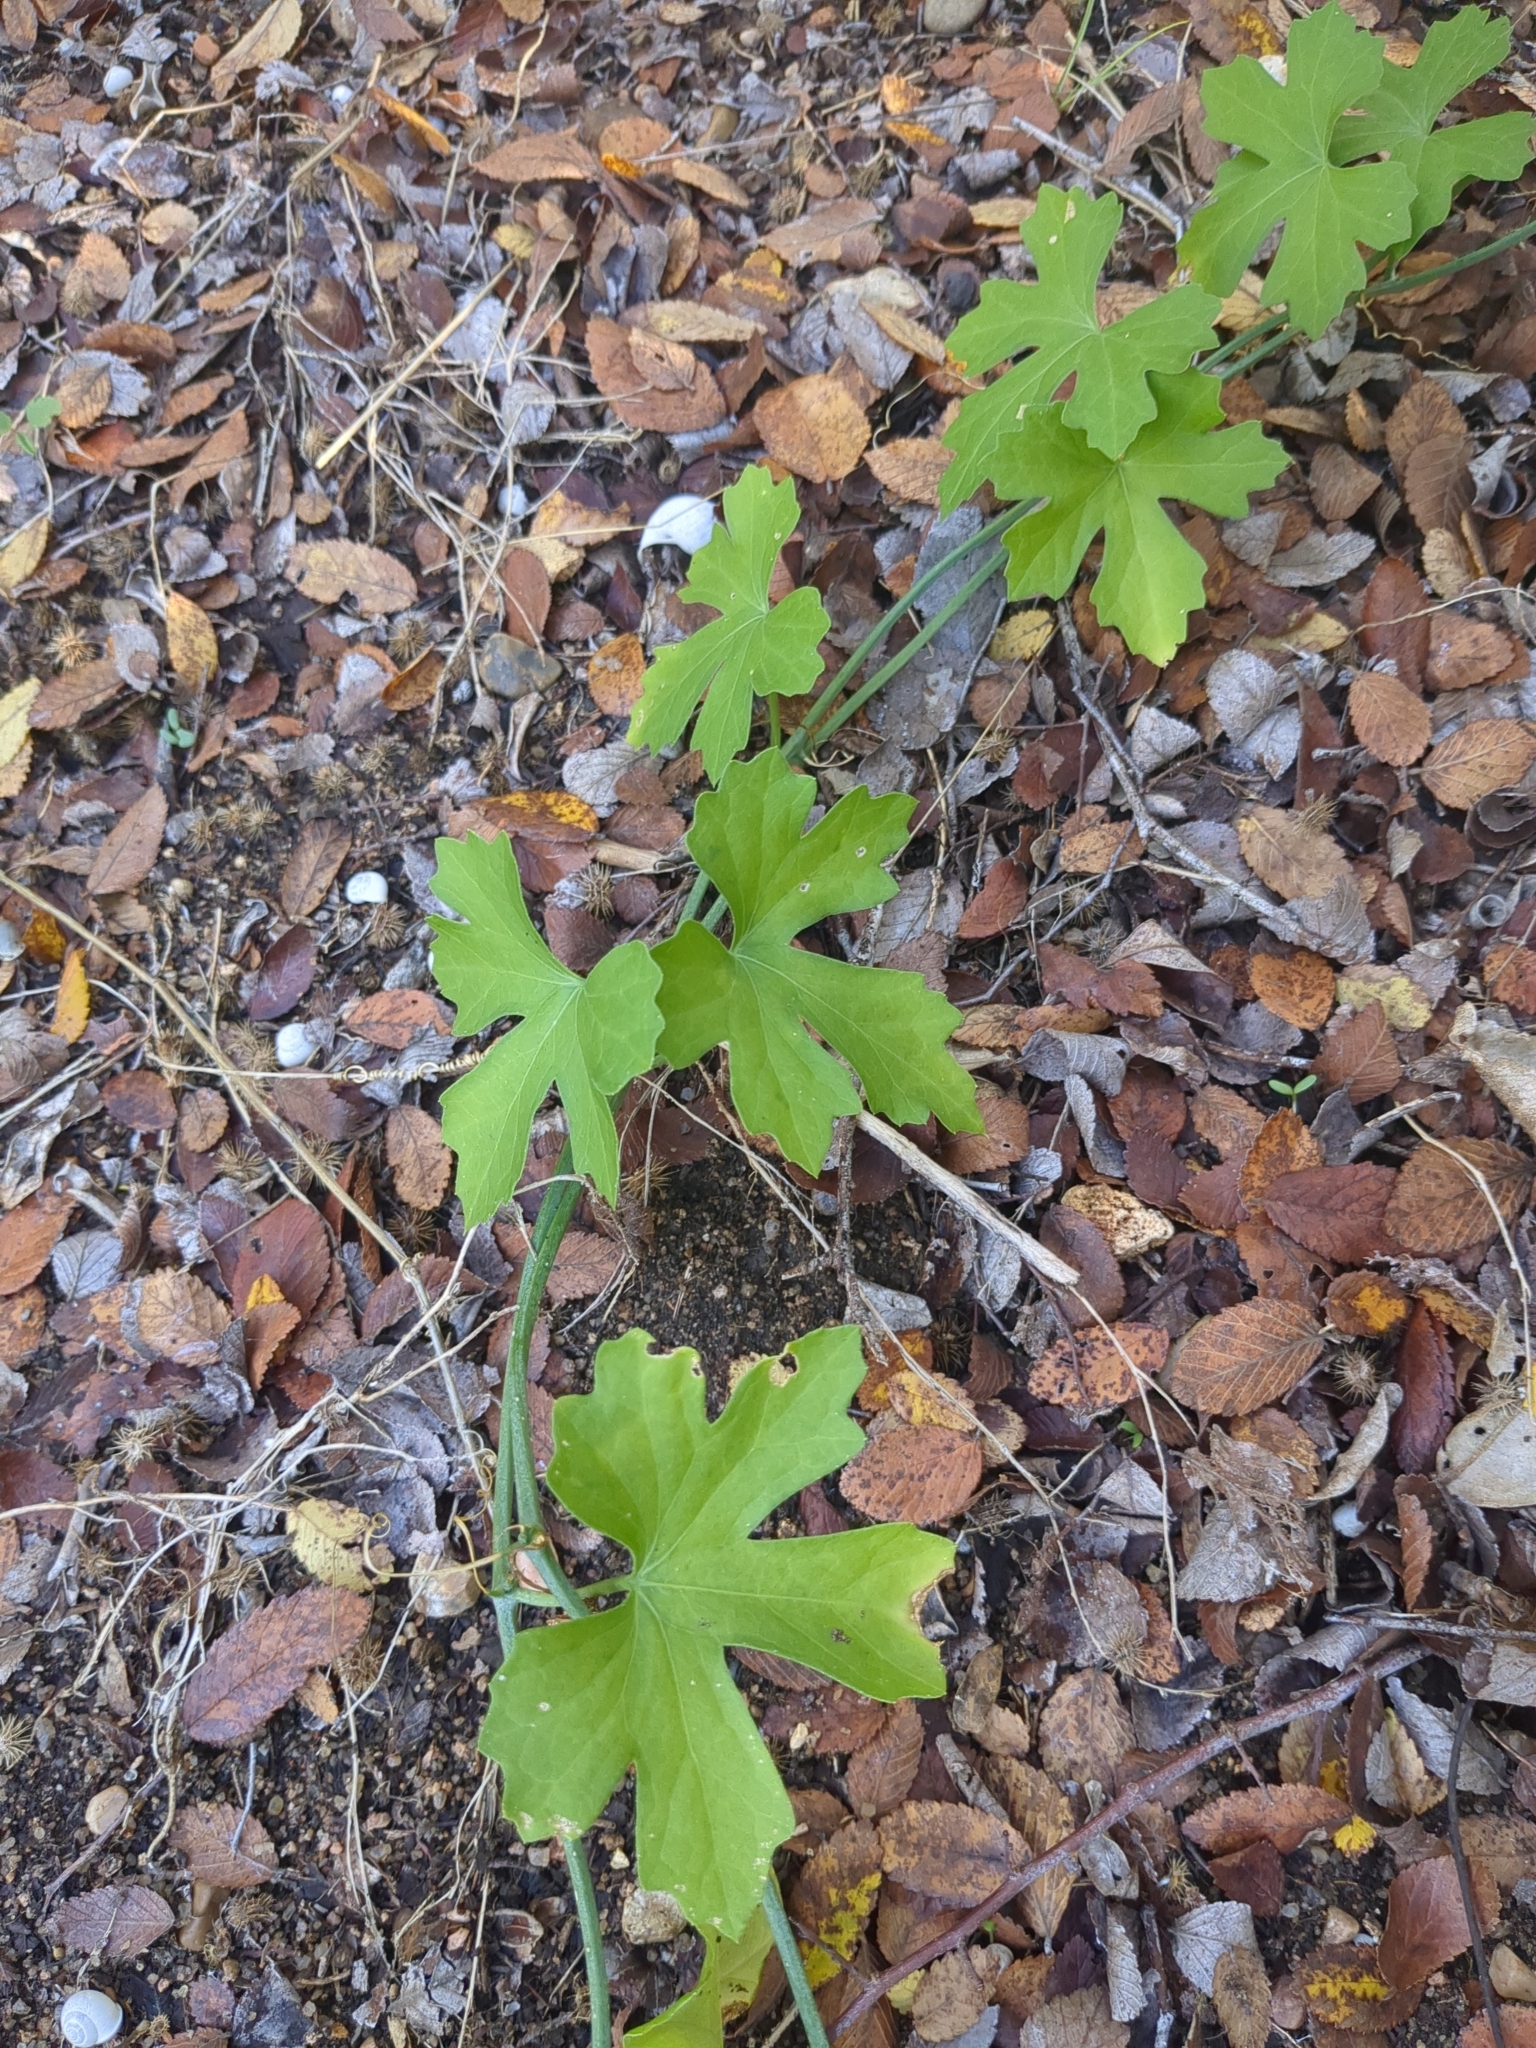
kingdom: Plantae
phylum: Tracheophyta
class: Magnoliopsida
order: Cucurbitales
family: Cucurbitaceae
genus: Ibervillea
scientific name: Ibervillea lindheimeri
